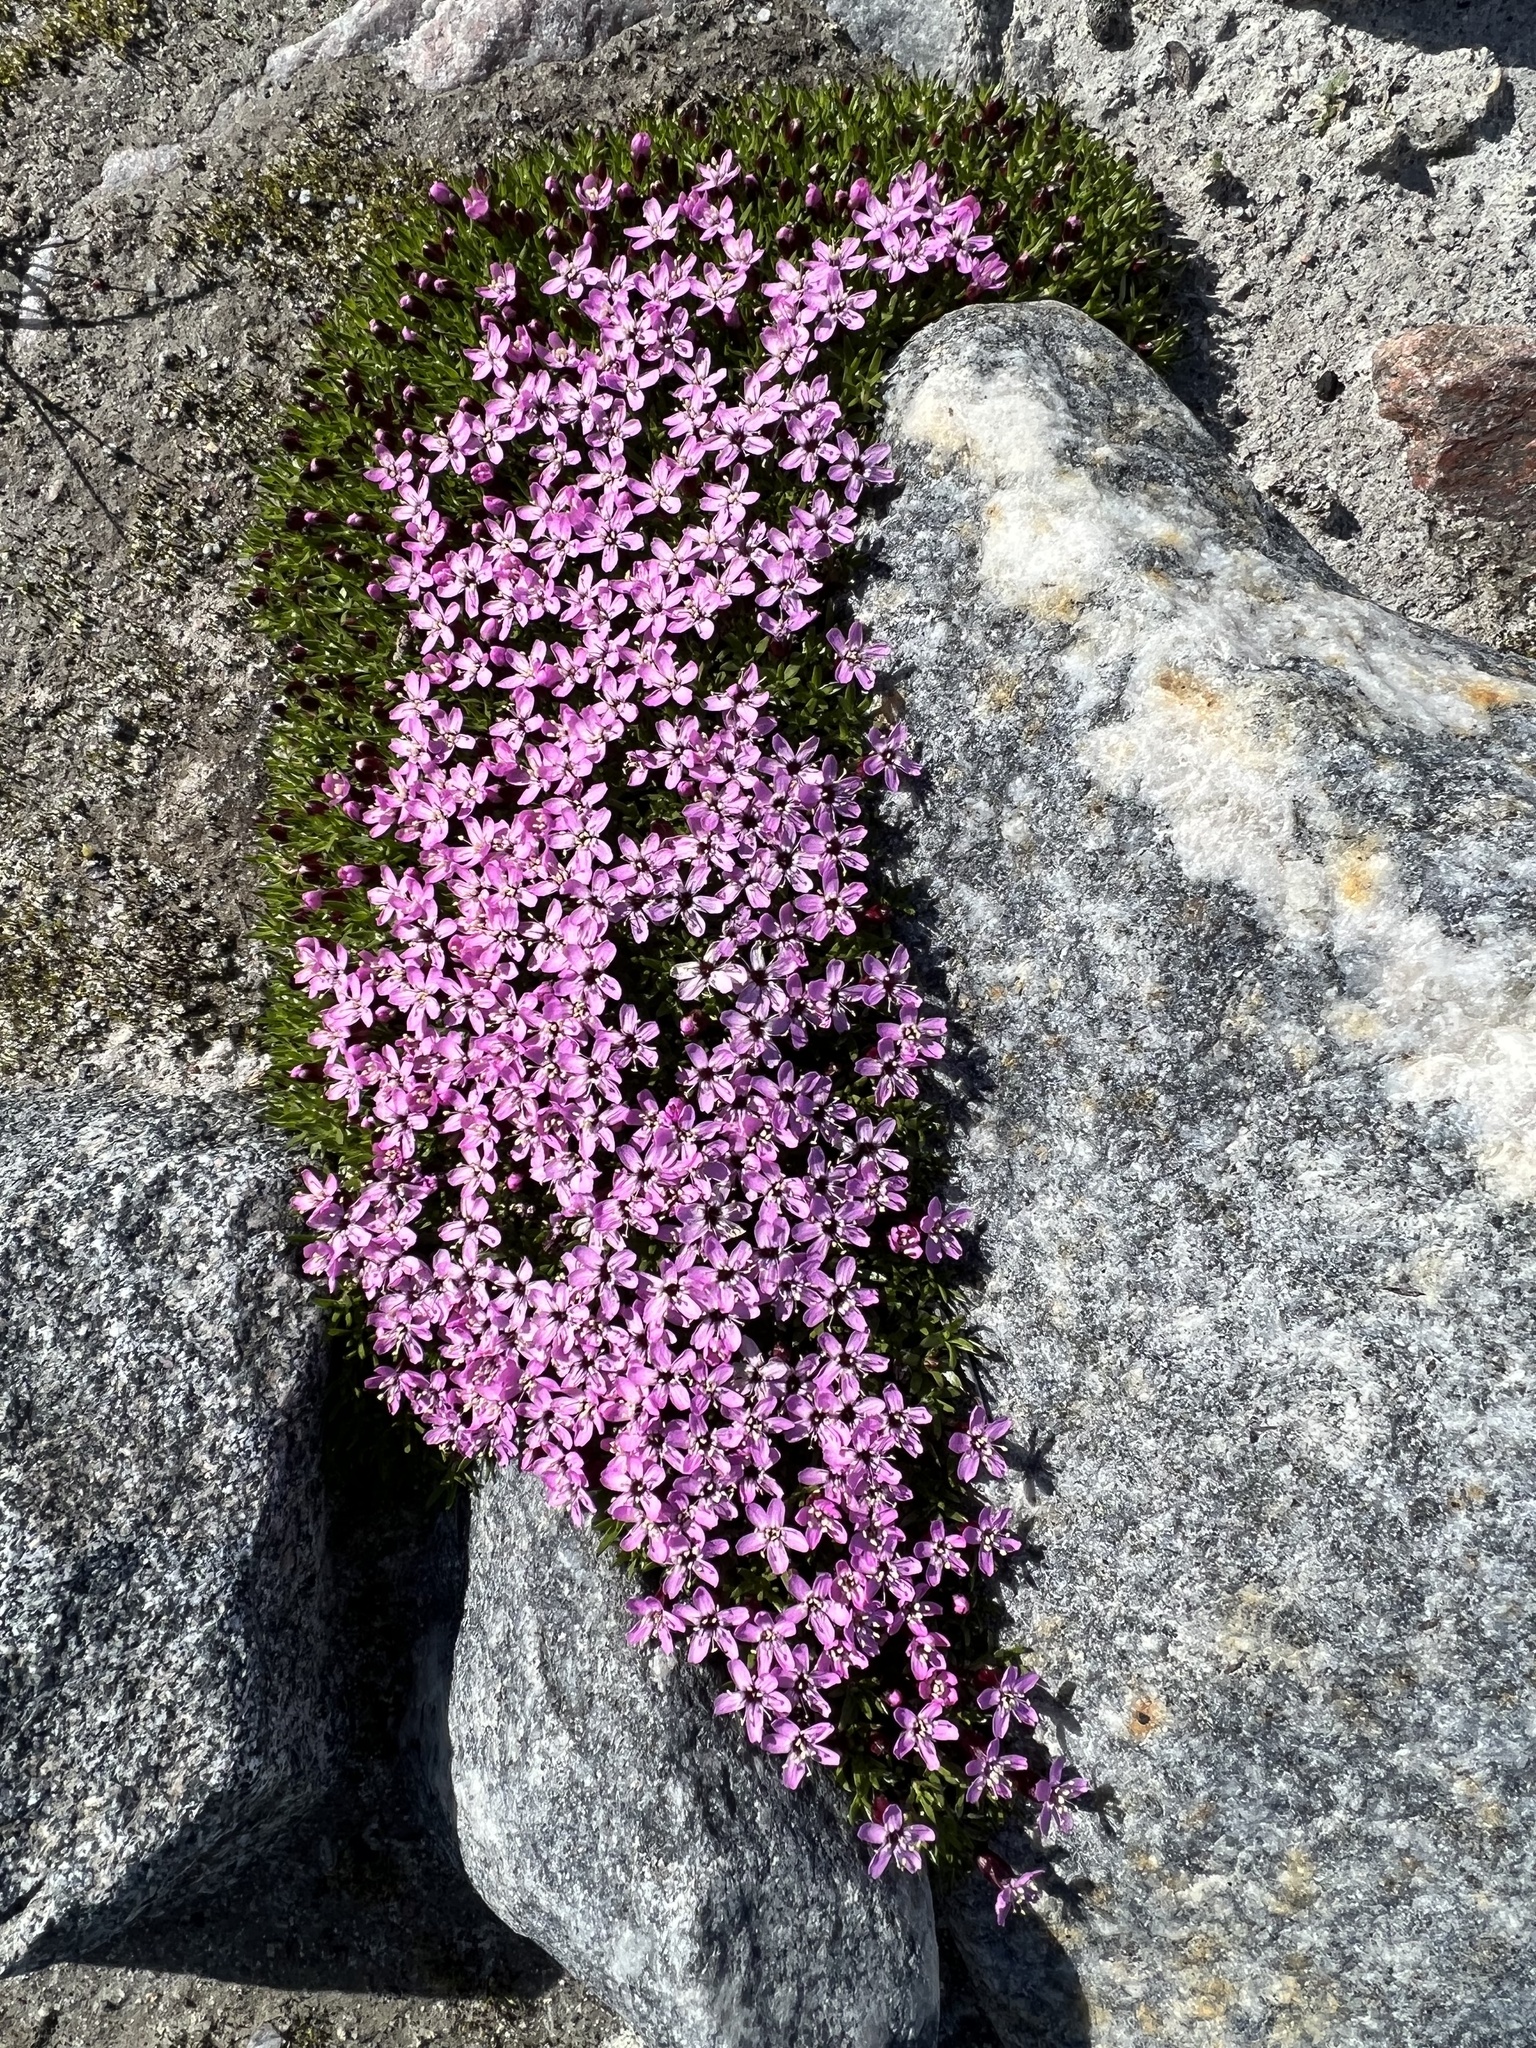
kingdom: Plantae
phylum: Tracheophyta
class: Magnoliopsida
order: Caryophyllales
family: Caryophyllaceae
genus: Silene
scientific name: Silene acaulis
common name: Moss campion
